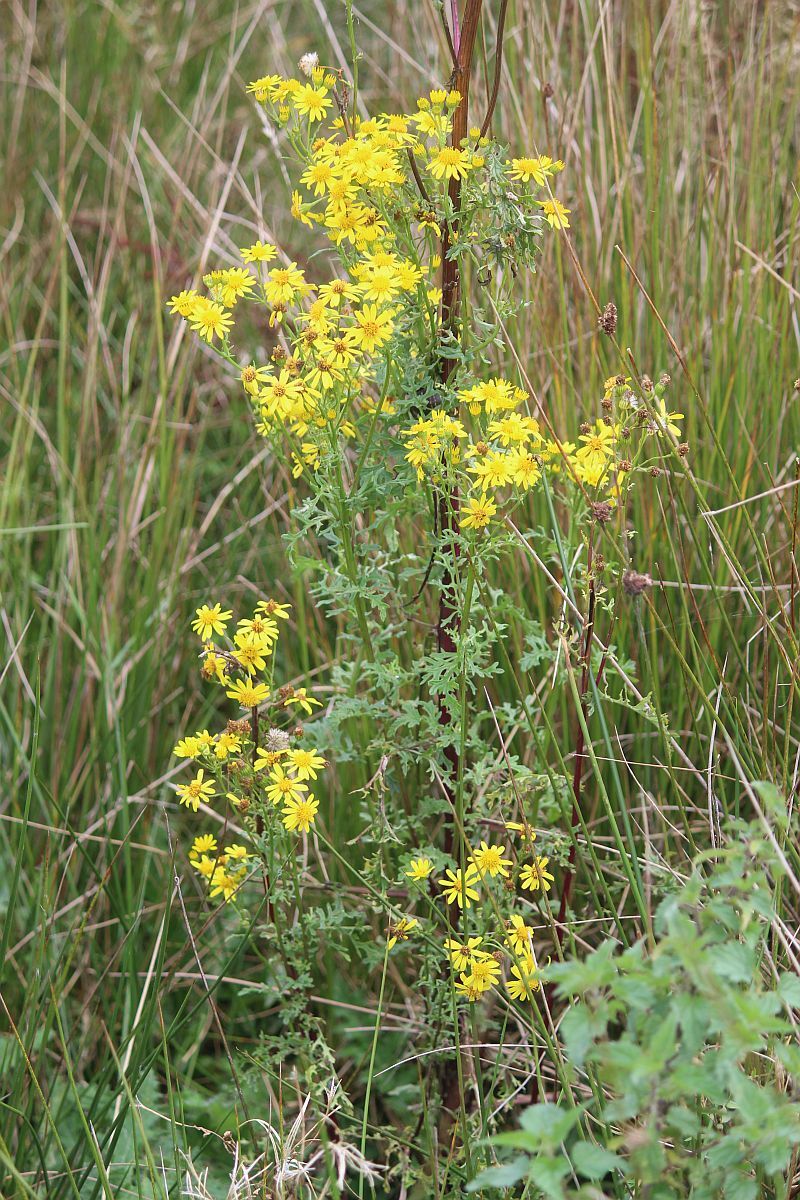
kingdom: Plantae
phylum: Tracheophyta
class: Magnoliopsida
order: Asterales
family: Asteraceae
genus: Jacobaea
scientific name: Jacobaea vulgaris
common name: Stinking willie
